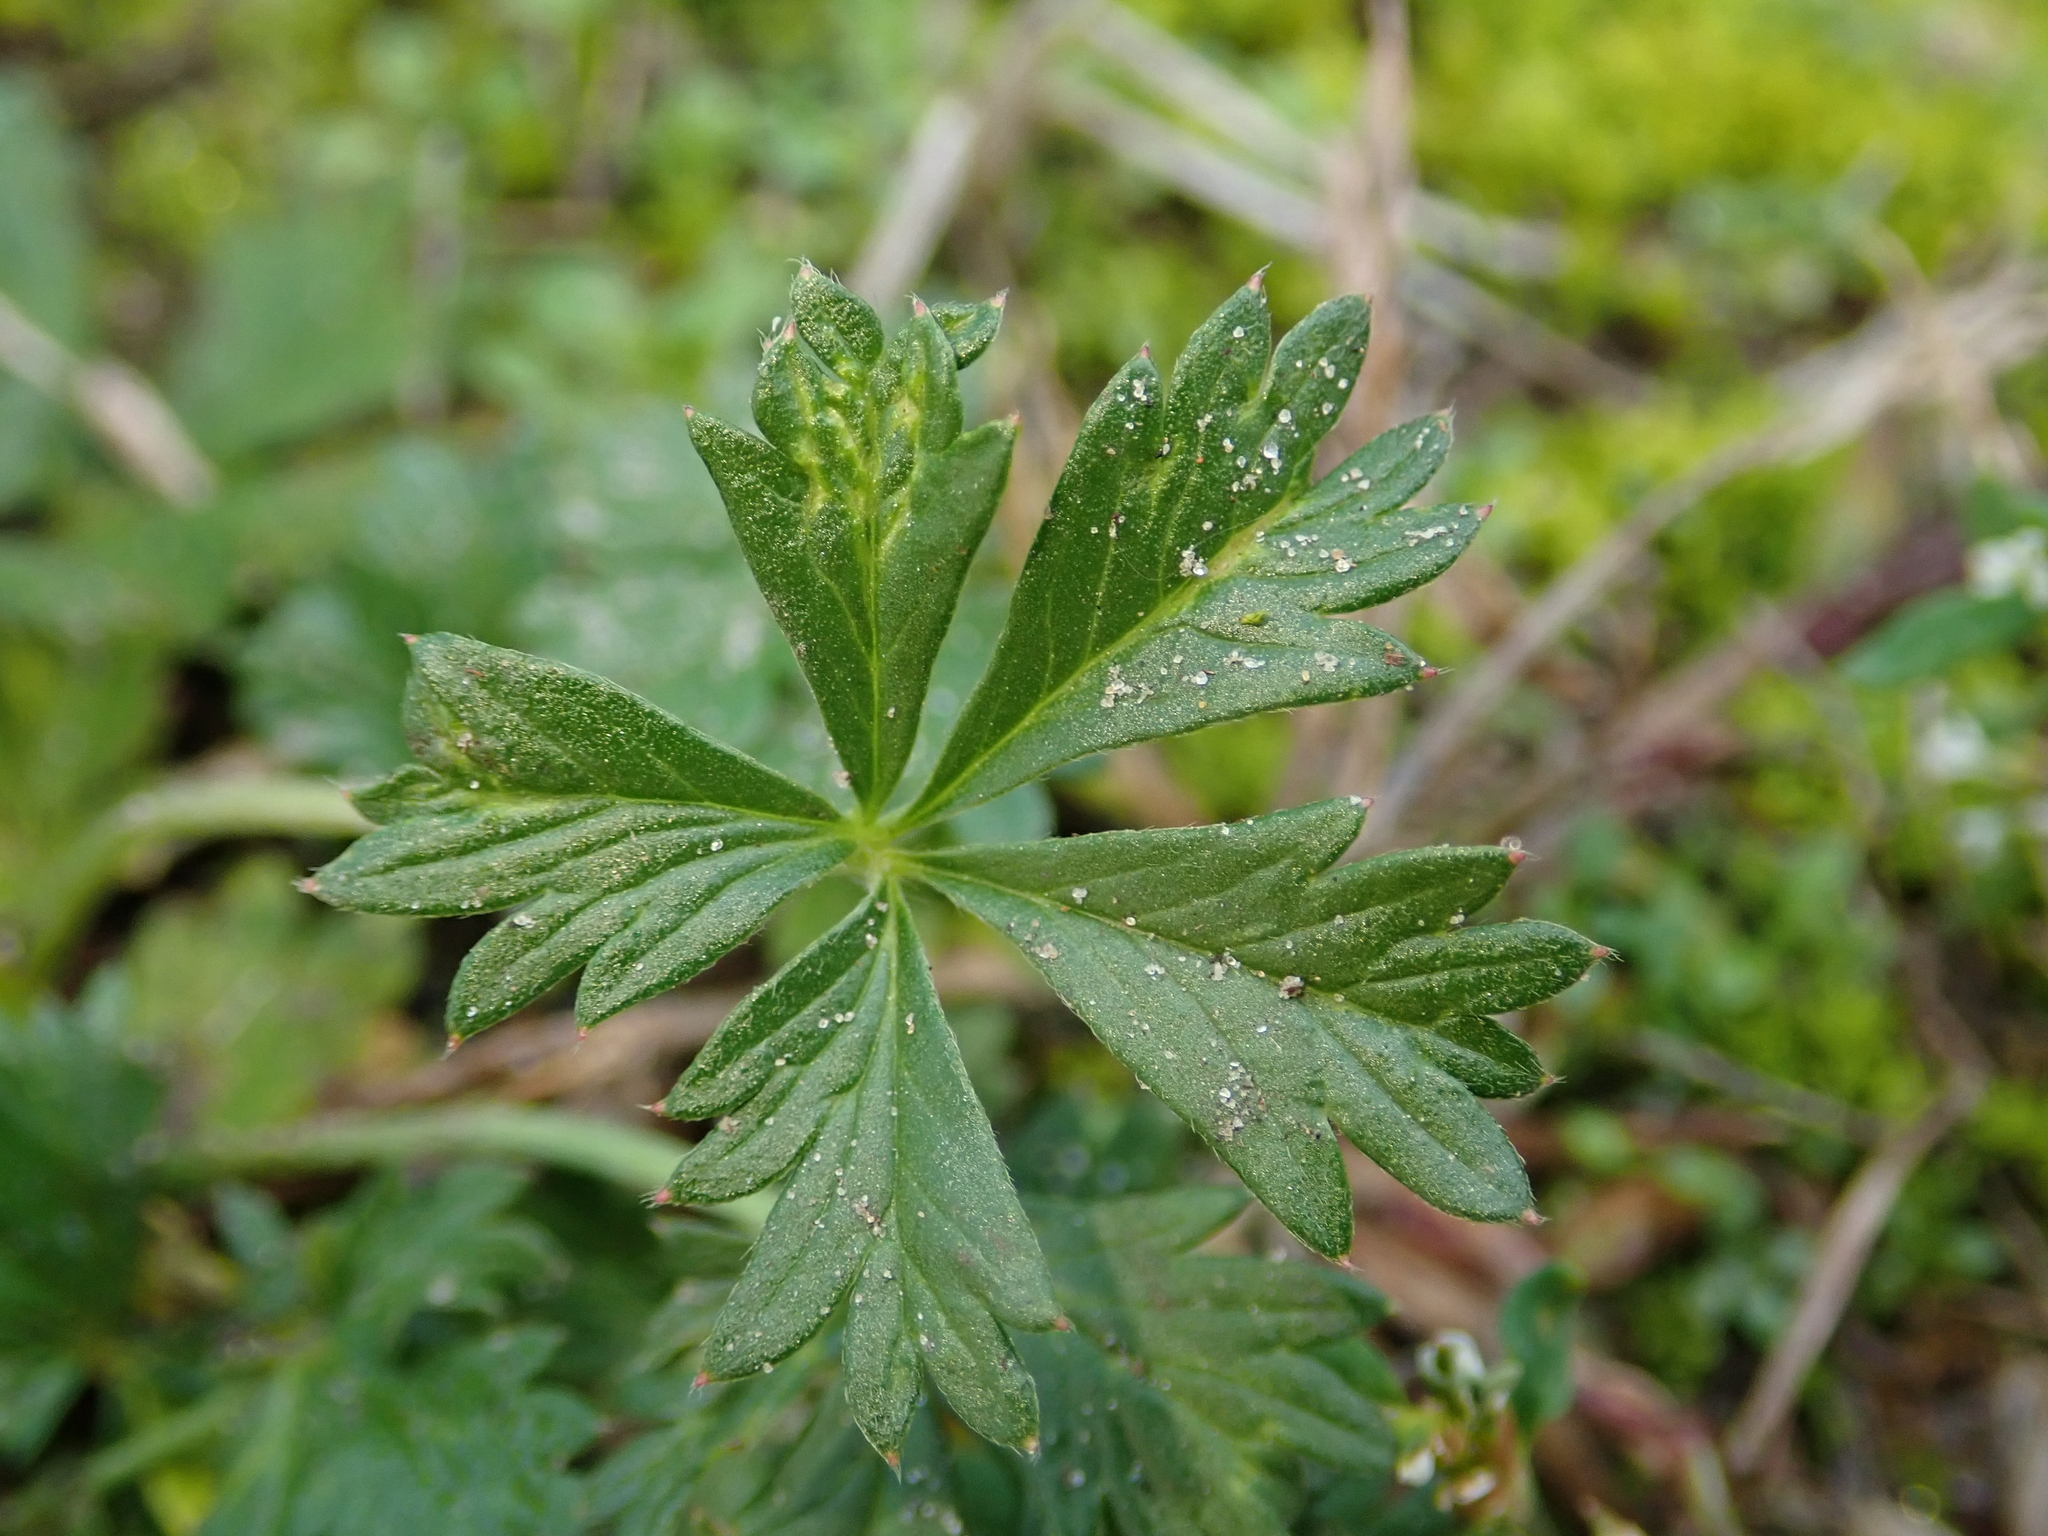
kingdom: Plantae
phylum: Tracheophyta
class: Magnoliopsida
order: Rosales
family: Rosaceae
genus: Potentilla
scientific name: Potentilla argentea
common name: Hoary cinquefoil
